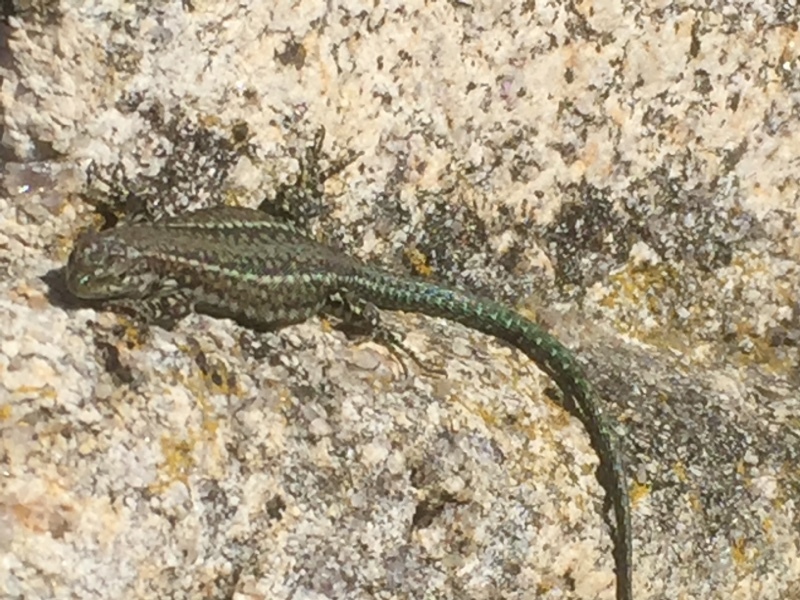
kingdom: Animalia
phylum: Chordata
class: Squamata
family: Lacertidae
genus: Podarcis
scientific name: Podarcis
